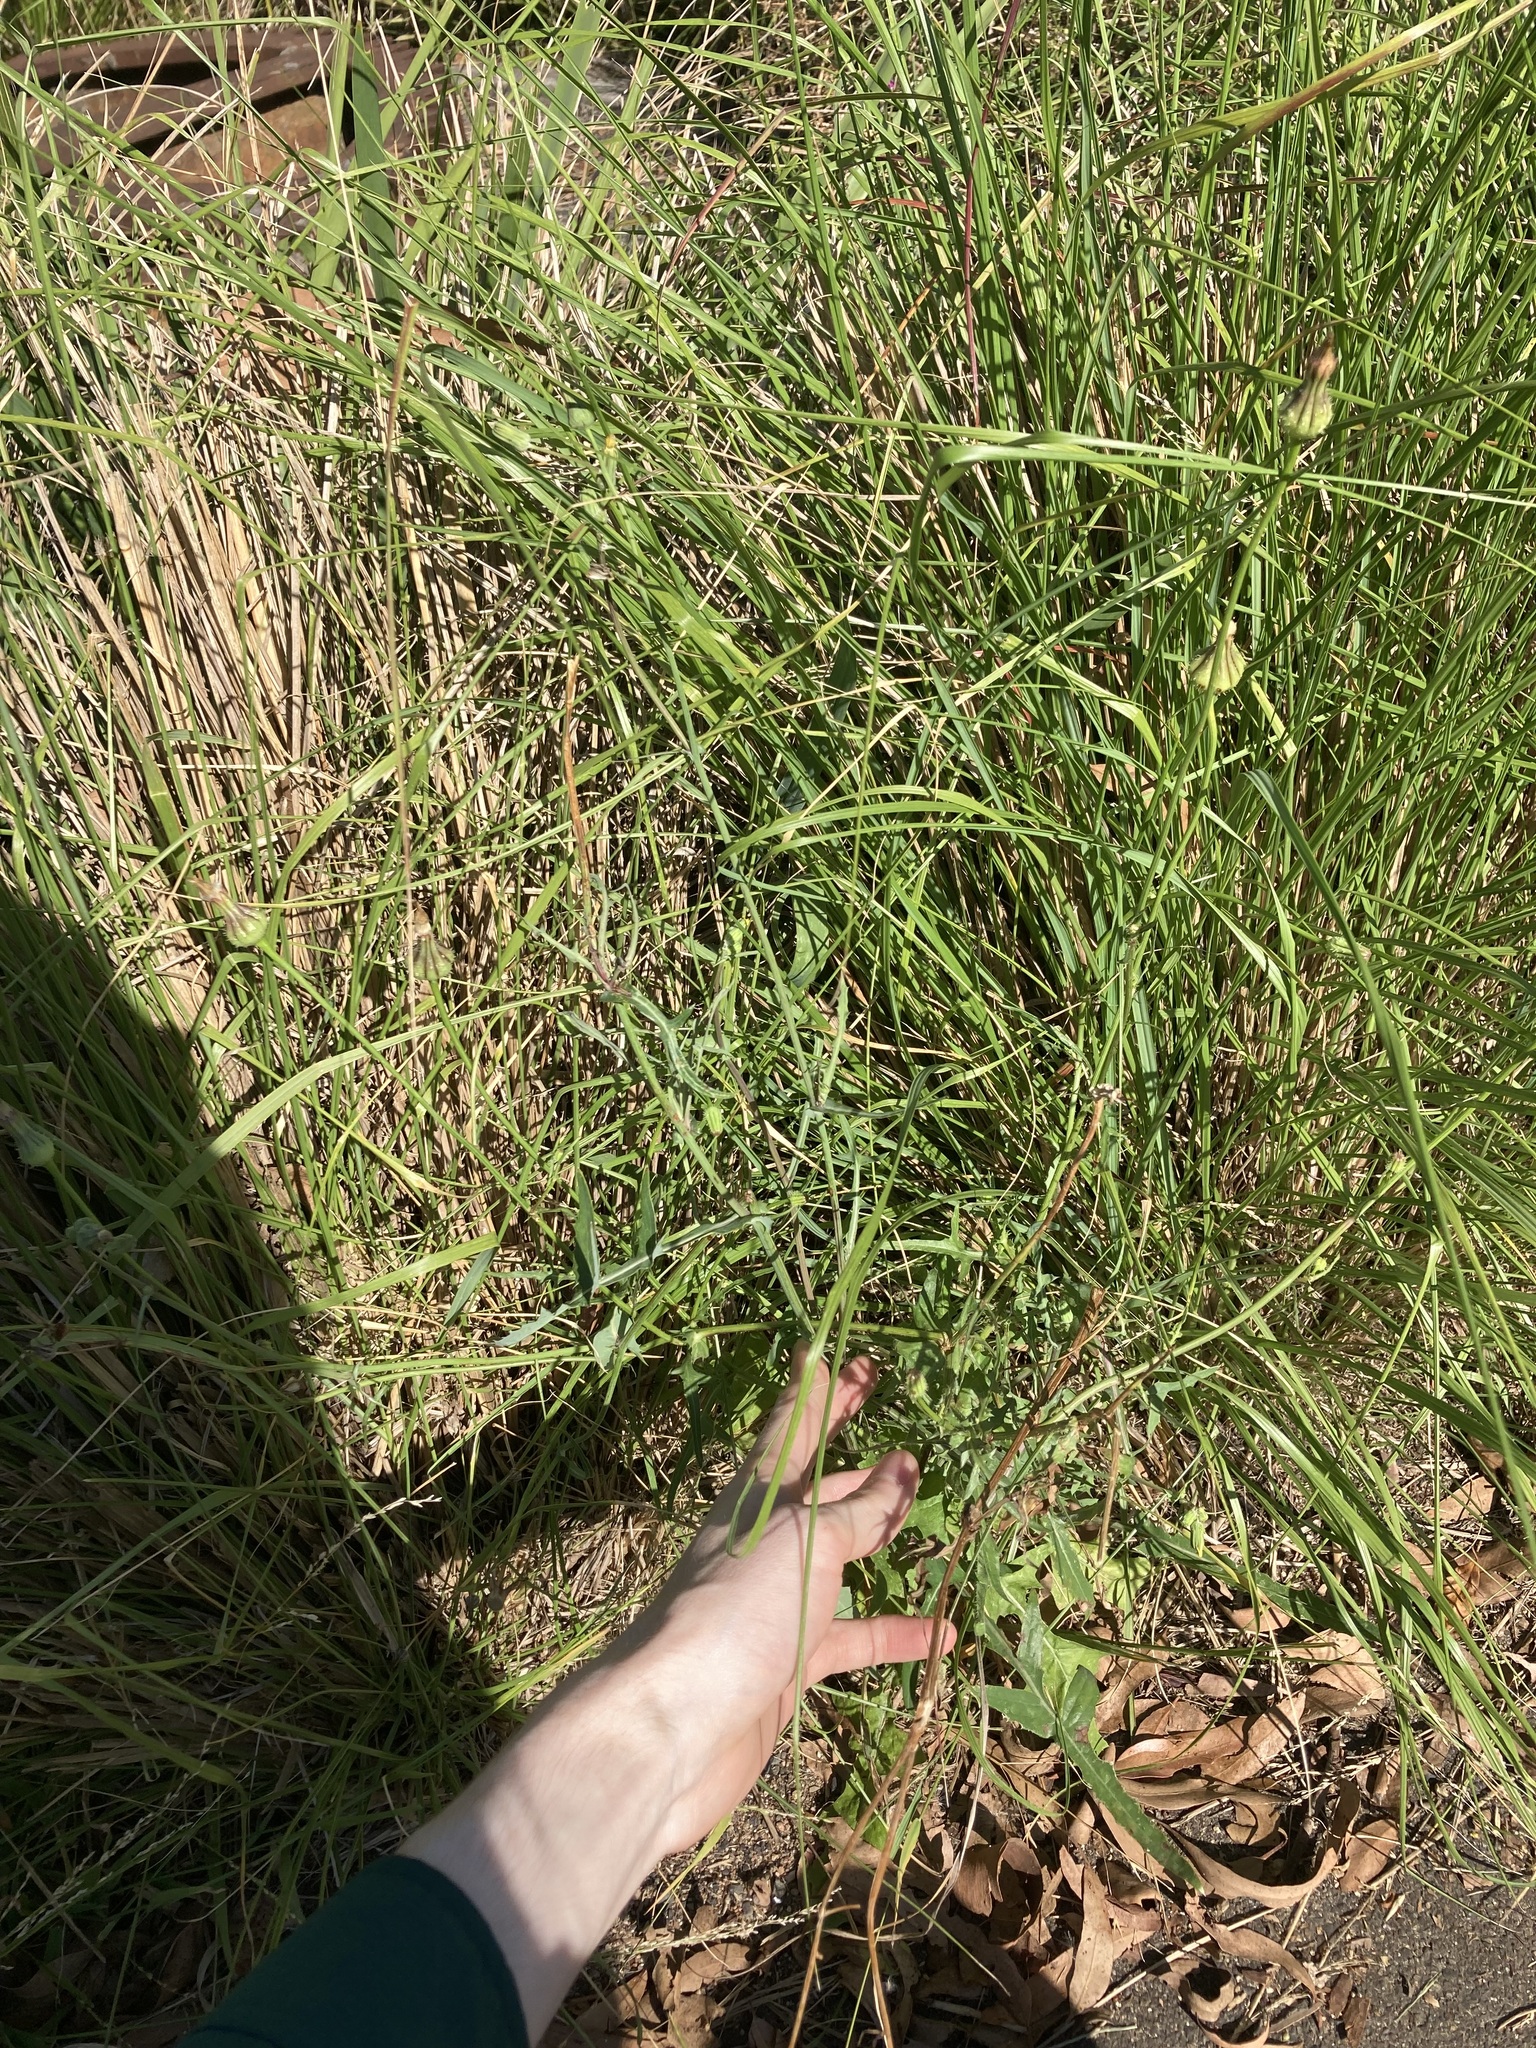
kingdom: Plantae
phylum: Tracheophyta
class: Magnoliopsida
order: Asterales
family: Asteraceae
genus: Urospermum
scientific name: Urospermum picroides
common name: False hawkbit
